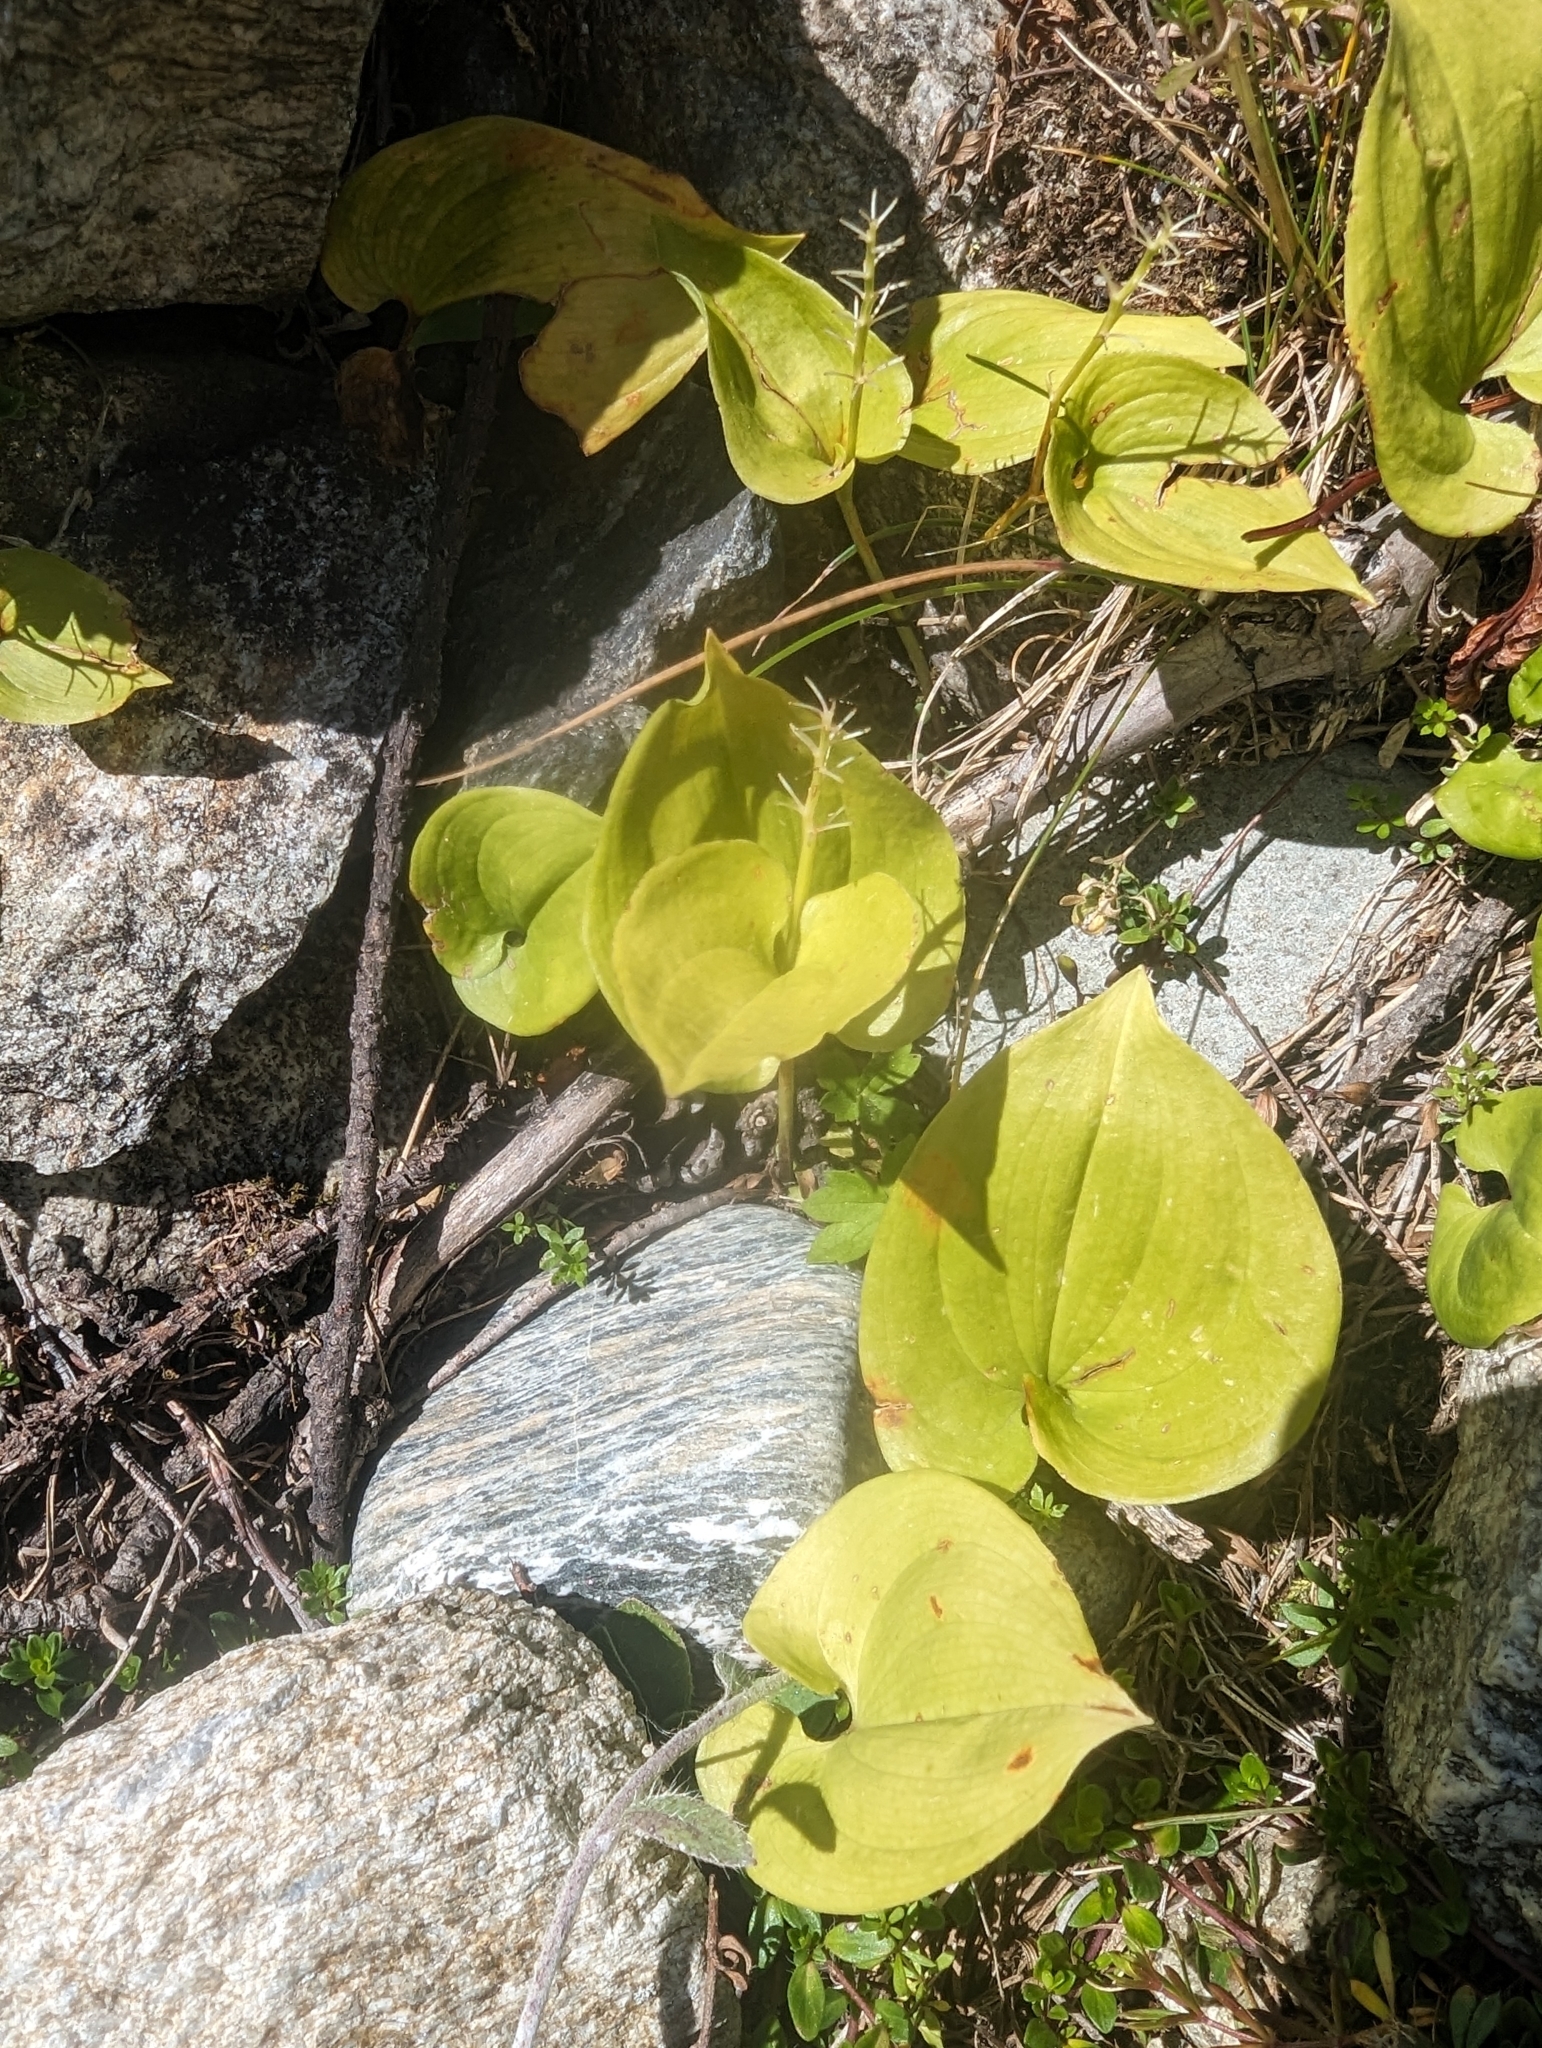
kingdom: Plantae
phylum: Tracheophyta
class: Liliopsida
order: Asparagales
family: Asparagaceae
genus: Maianthemum
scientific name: Maianthemum bifolium
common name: May lily
